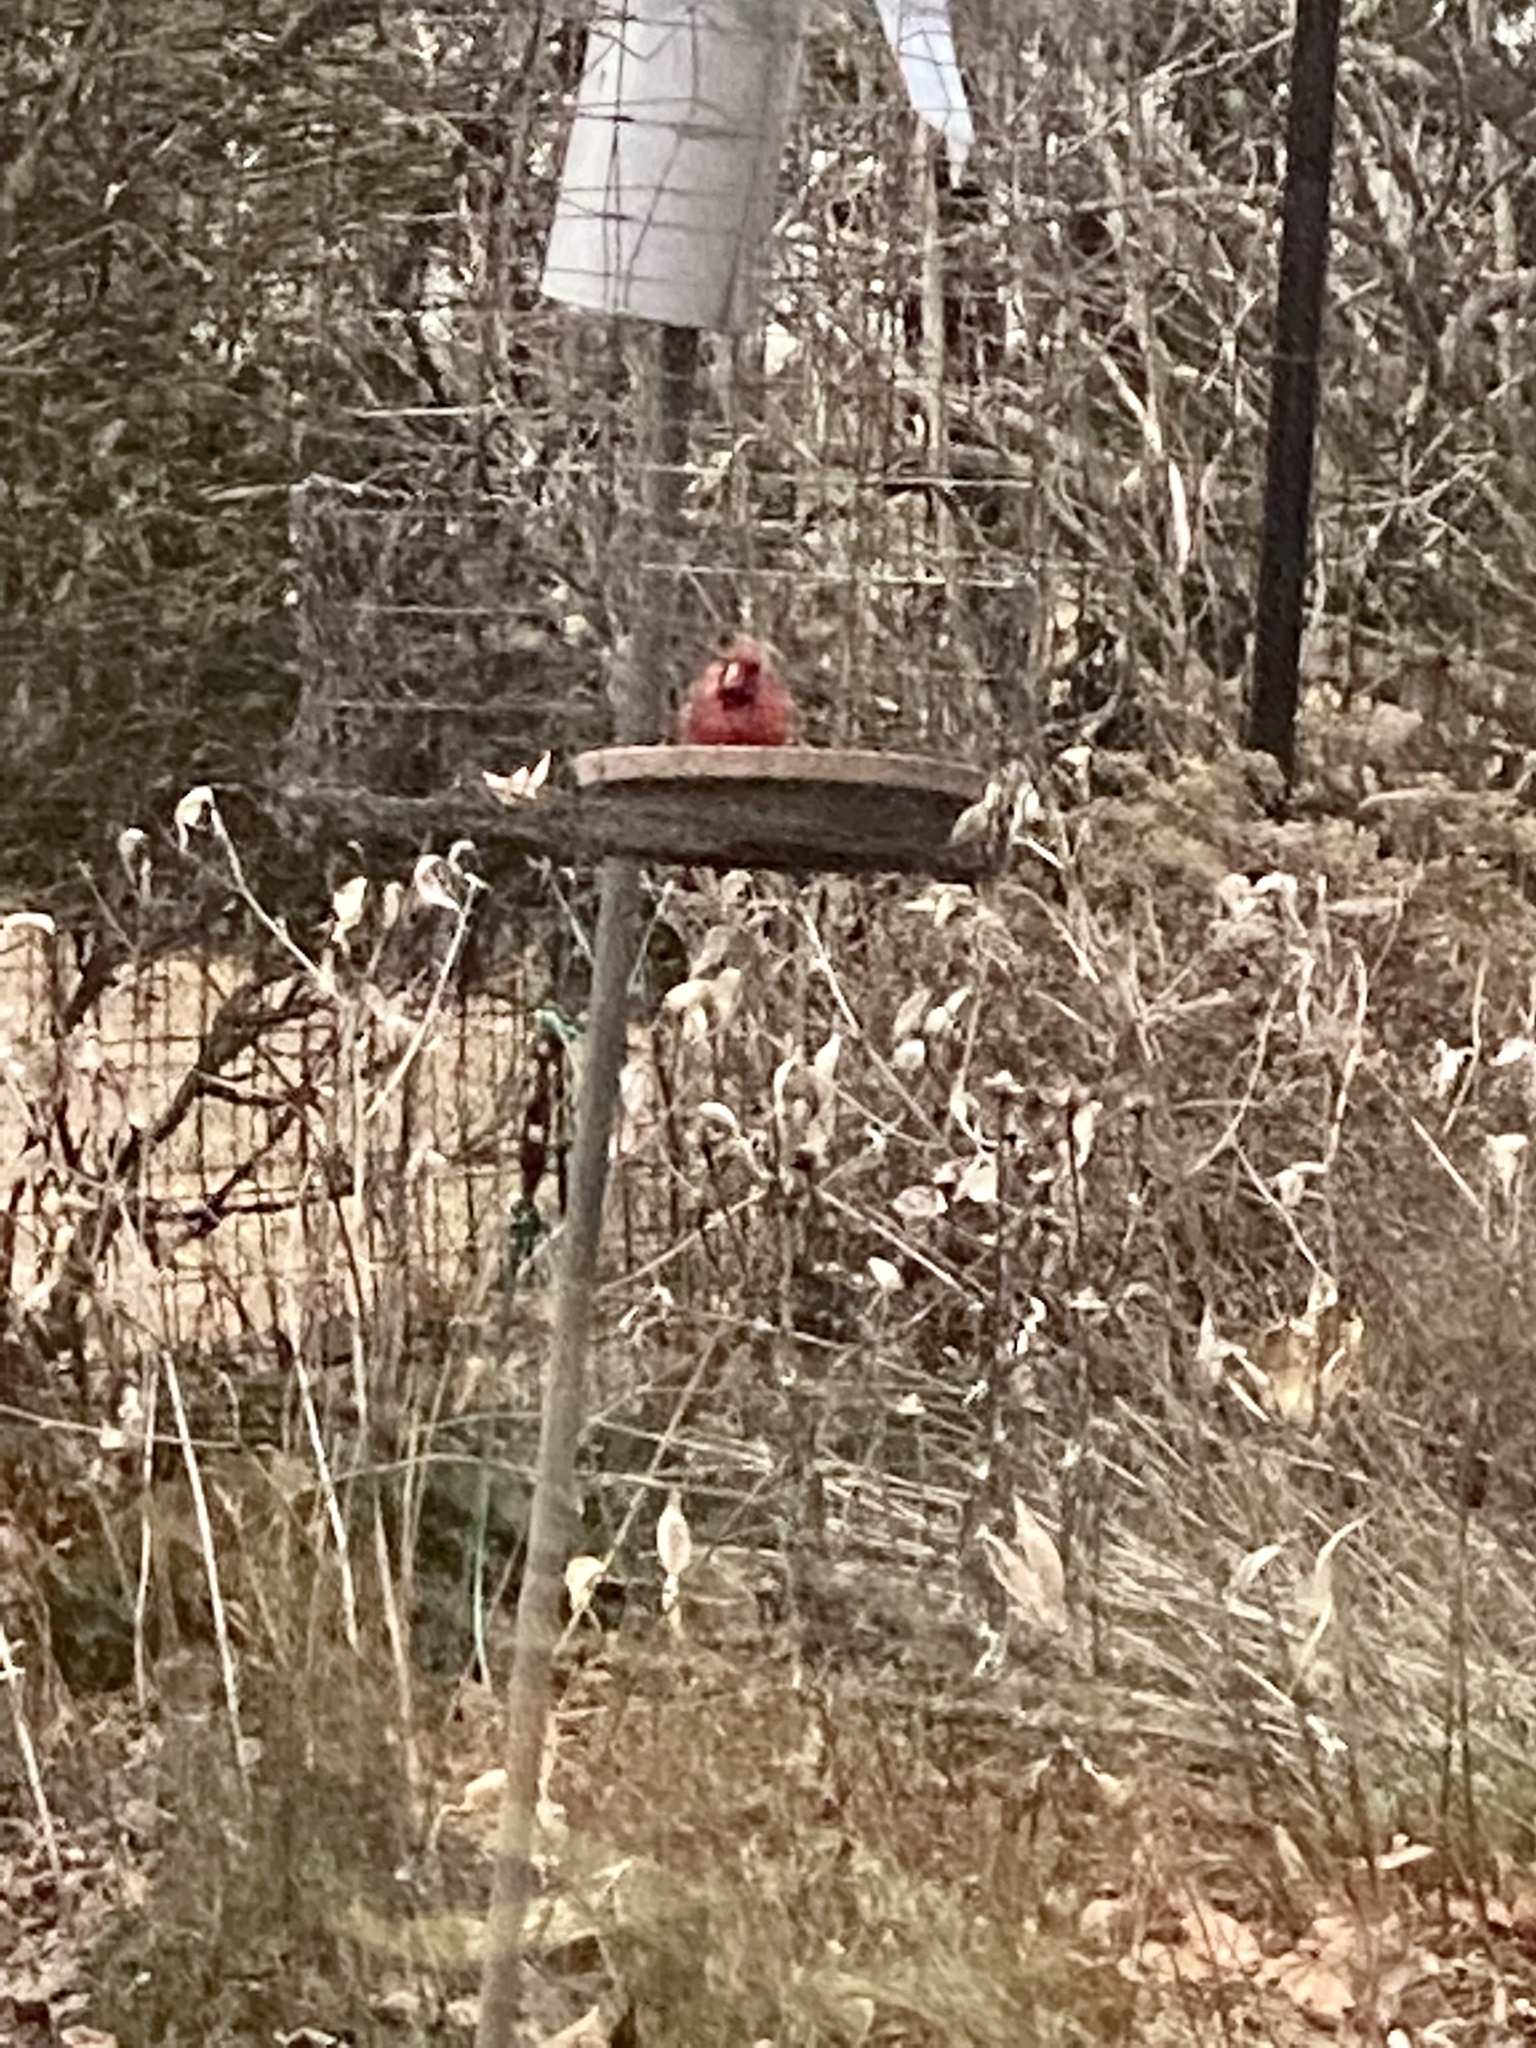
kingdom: Animalia
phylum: Chordata
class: Aves
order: Passeriformes
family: Cardinalidae
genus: Cardinalis
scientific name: Cardinalis cardinalis
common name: Northern cardinal
